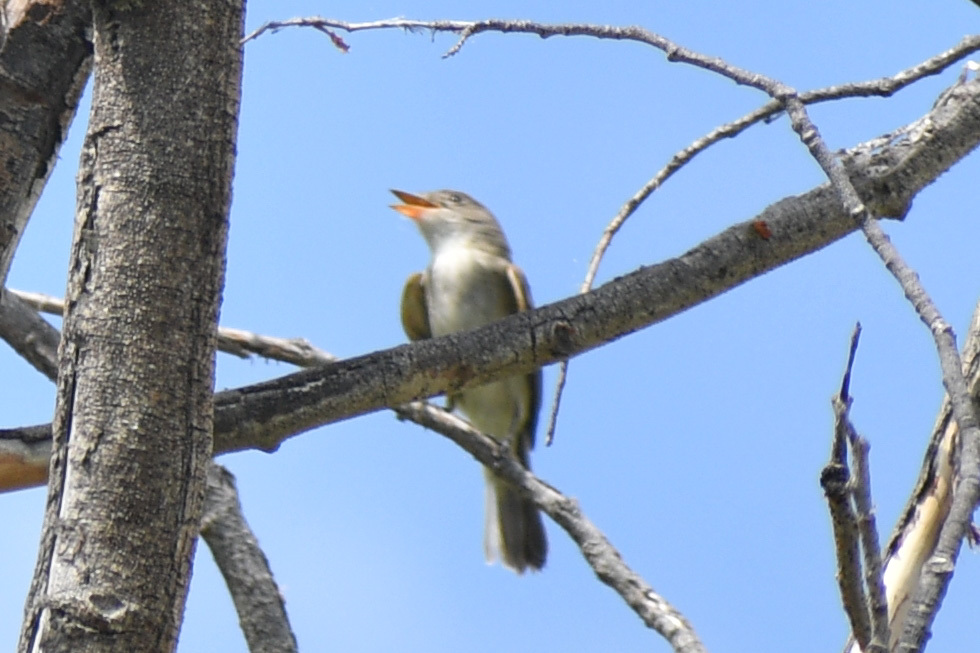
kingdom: Animalia
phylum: Chordata
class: Aves
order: Passeriformes
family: Tyrannidae
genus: Empidonax
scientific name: Empidonax traillii
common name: Willow flycatcher
